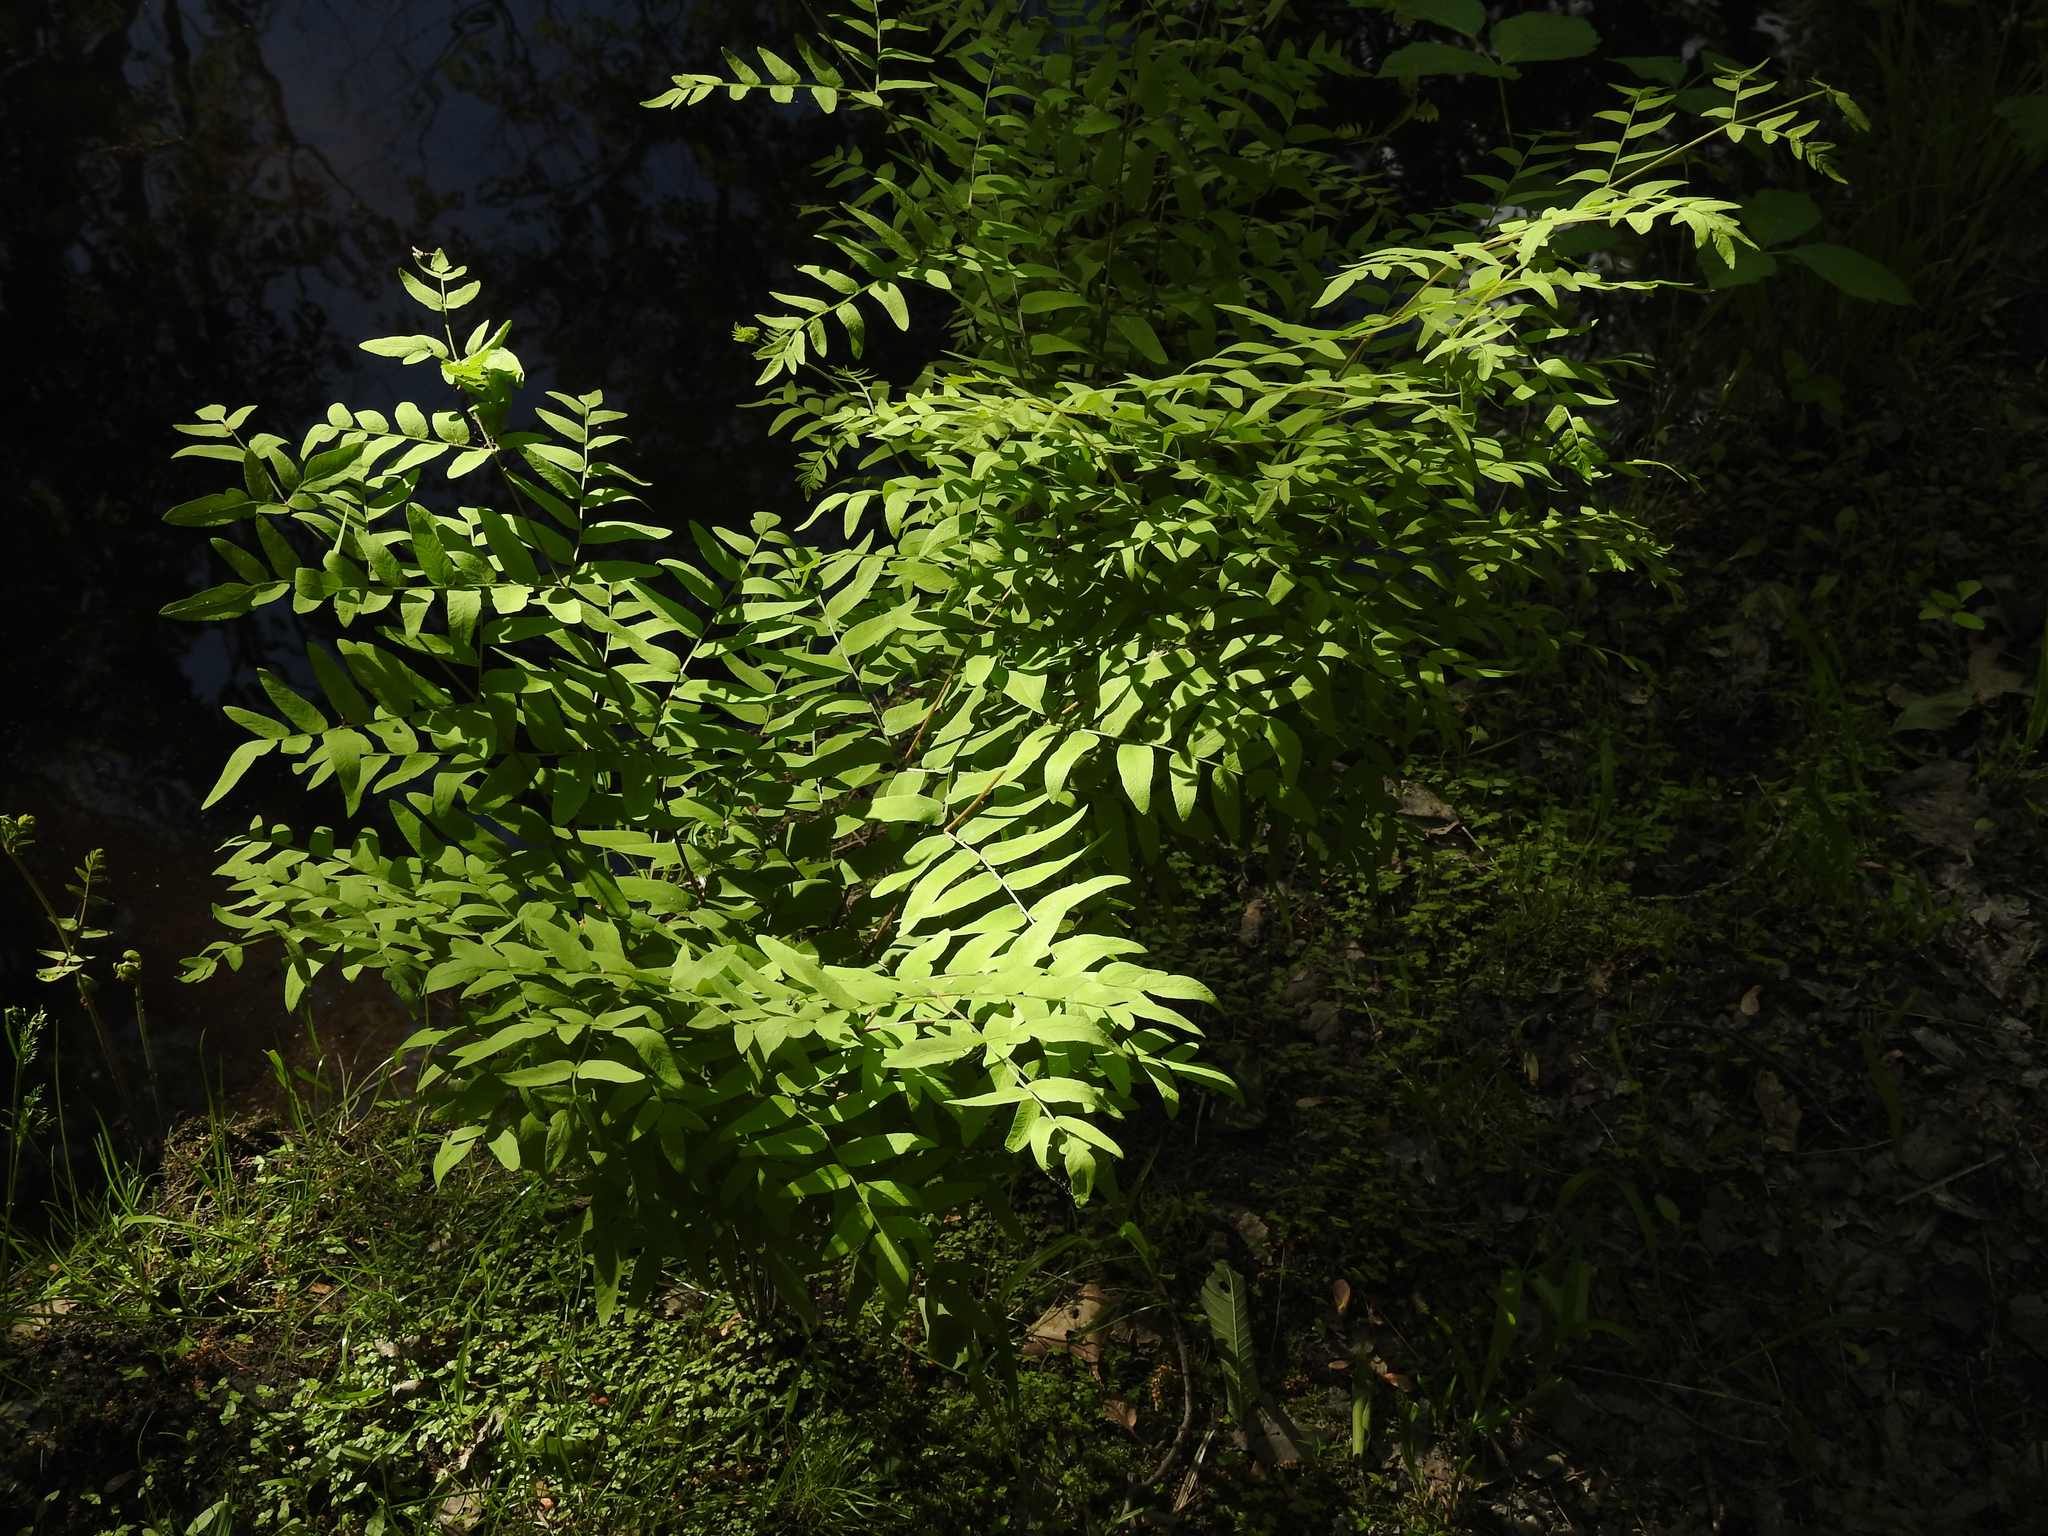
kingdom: Plantae
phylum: Tracheophyta
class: Polypodiopsida
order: Osmundales
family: Osmundaceae
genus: Osmunda
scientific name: Osmunda spectabilis
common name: American royal fern
